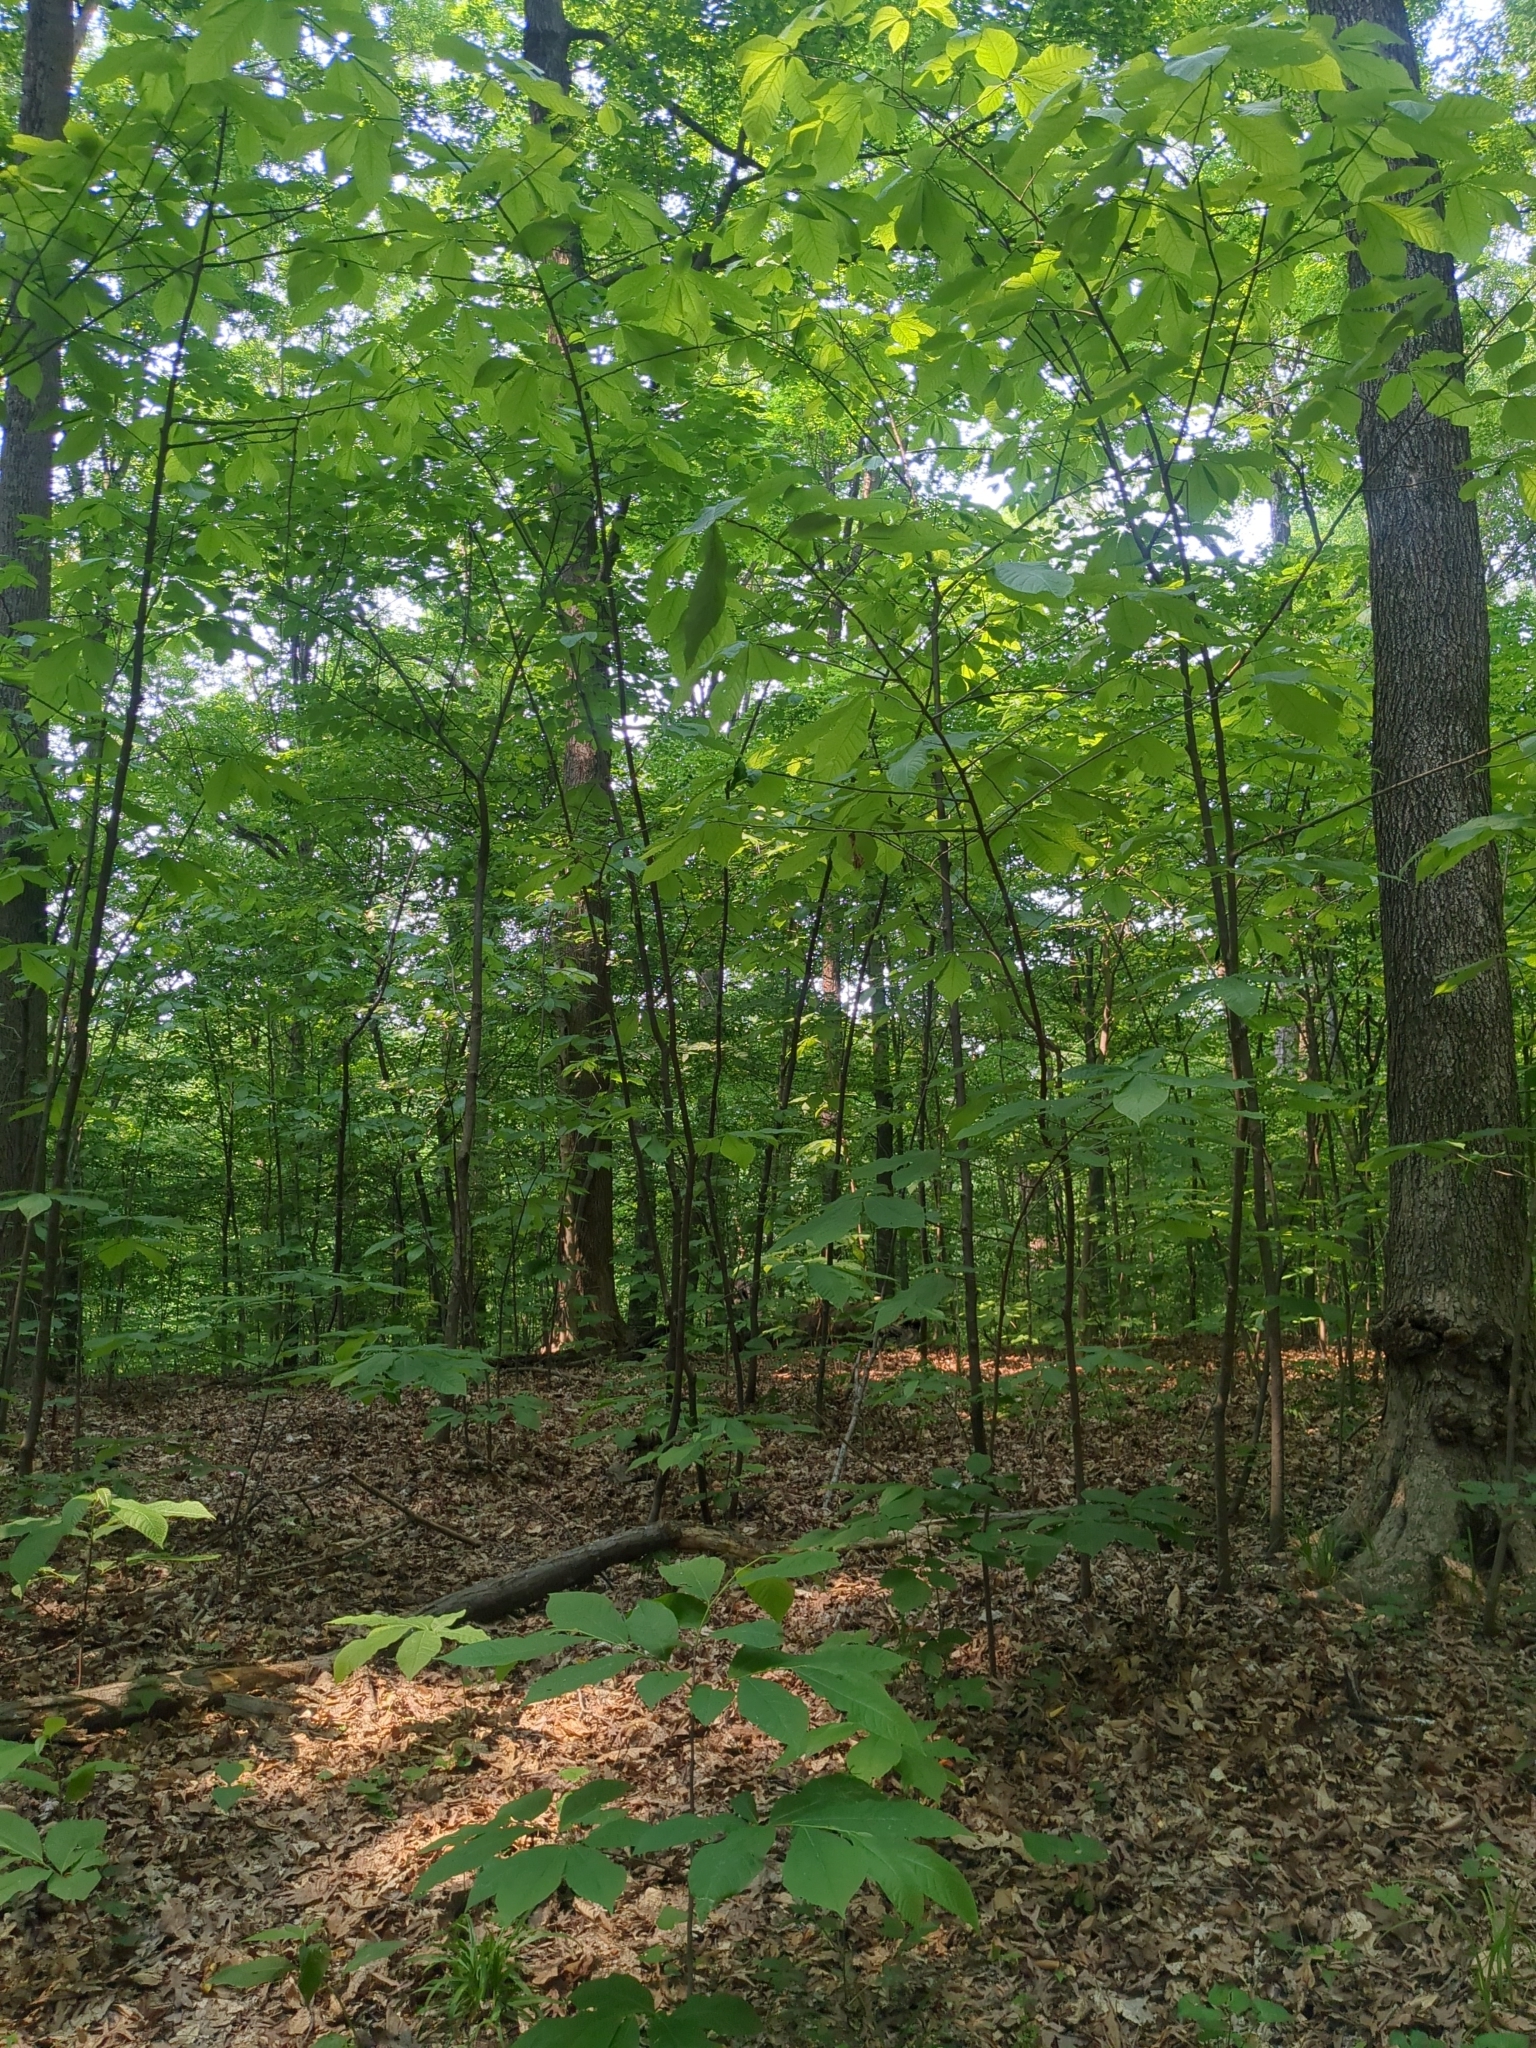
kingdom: Plantae
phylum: Tracheophyta
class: Magnoliopsida
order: Magnoliales
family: Annonaceae
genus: Asimina
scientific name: Asimina triloba
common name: Dog-banana
